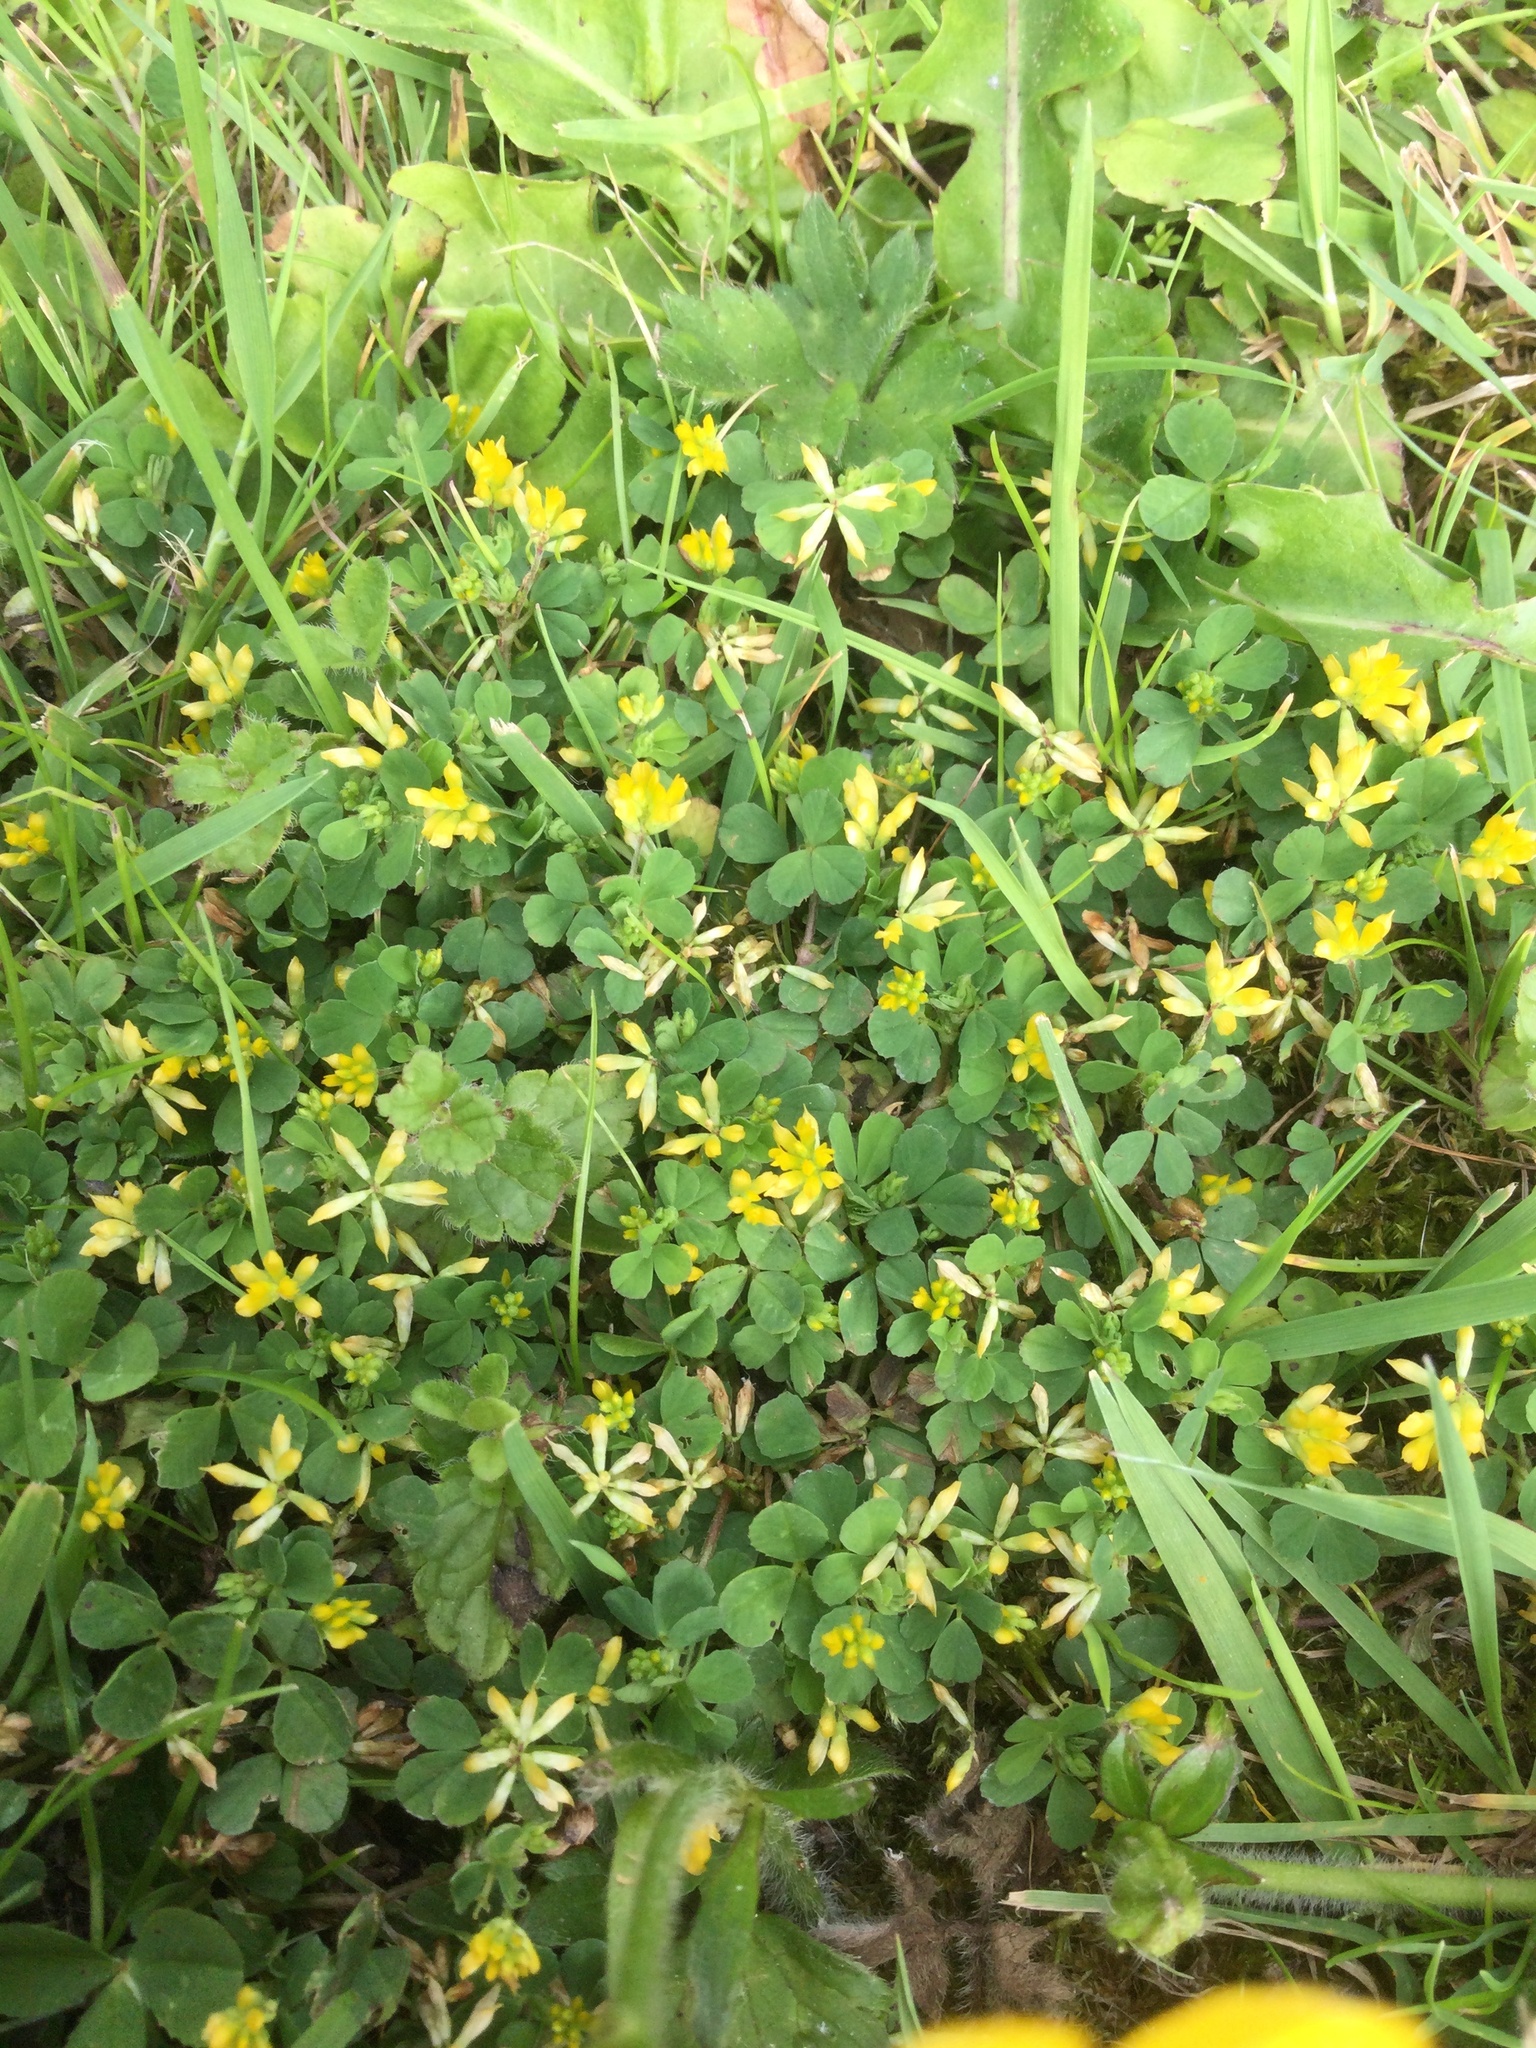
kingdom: Plantae
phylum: Tracheophyta
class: Magnoliopsida
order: Fabales
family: Fabaceae
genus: Trifolium
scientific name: Trifolium dubium
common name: Suckling clover
